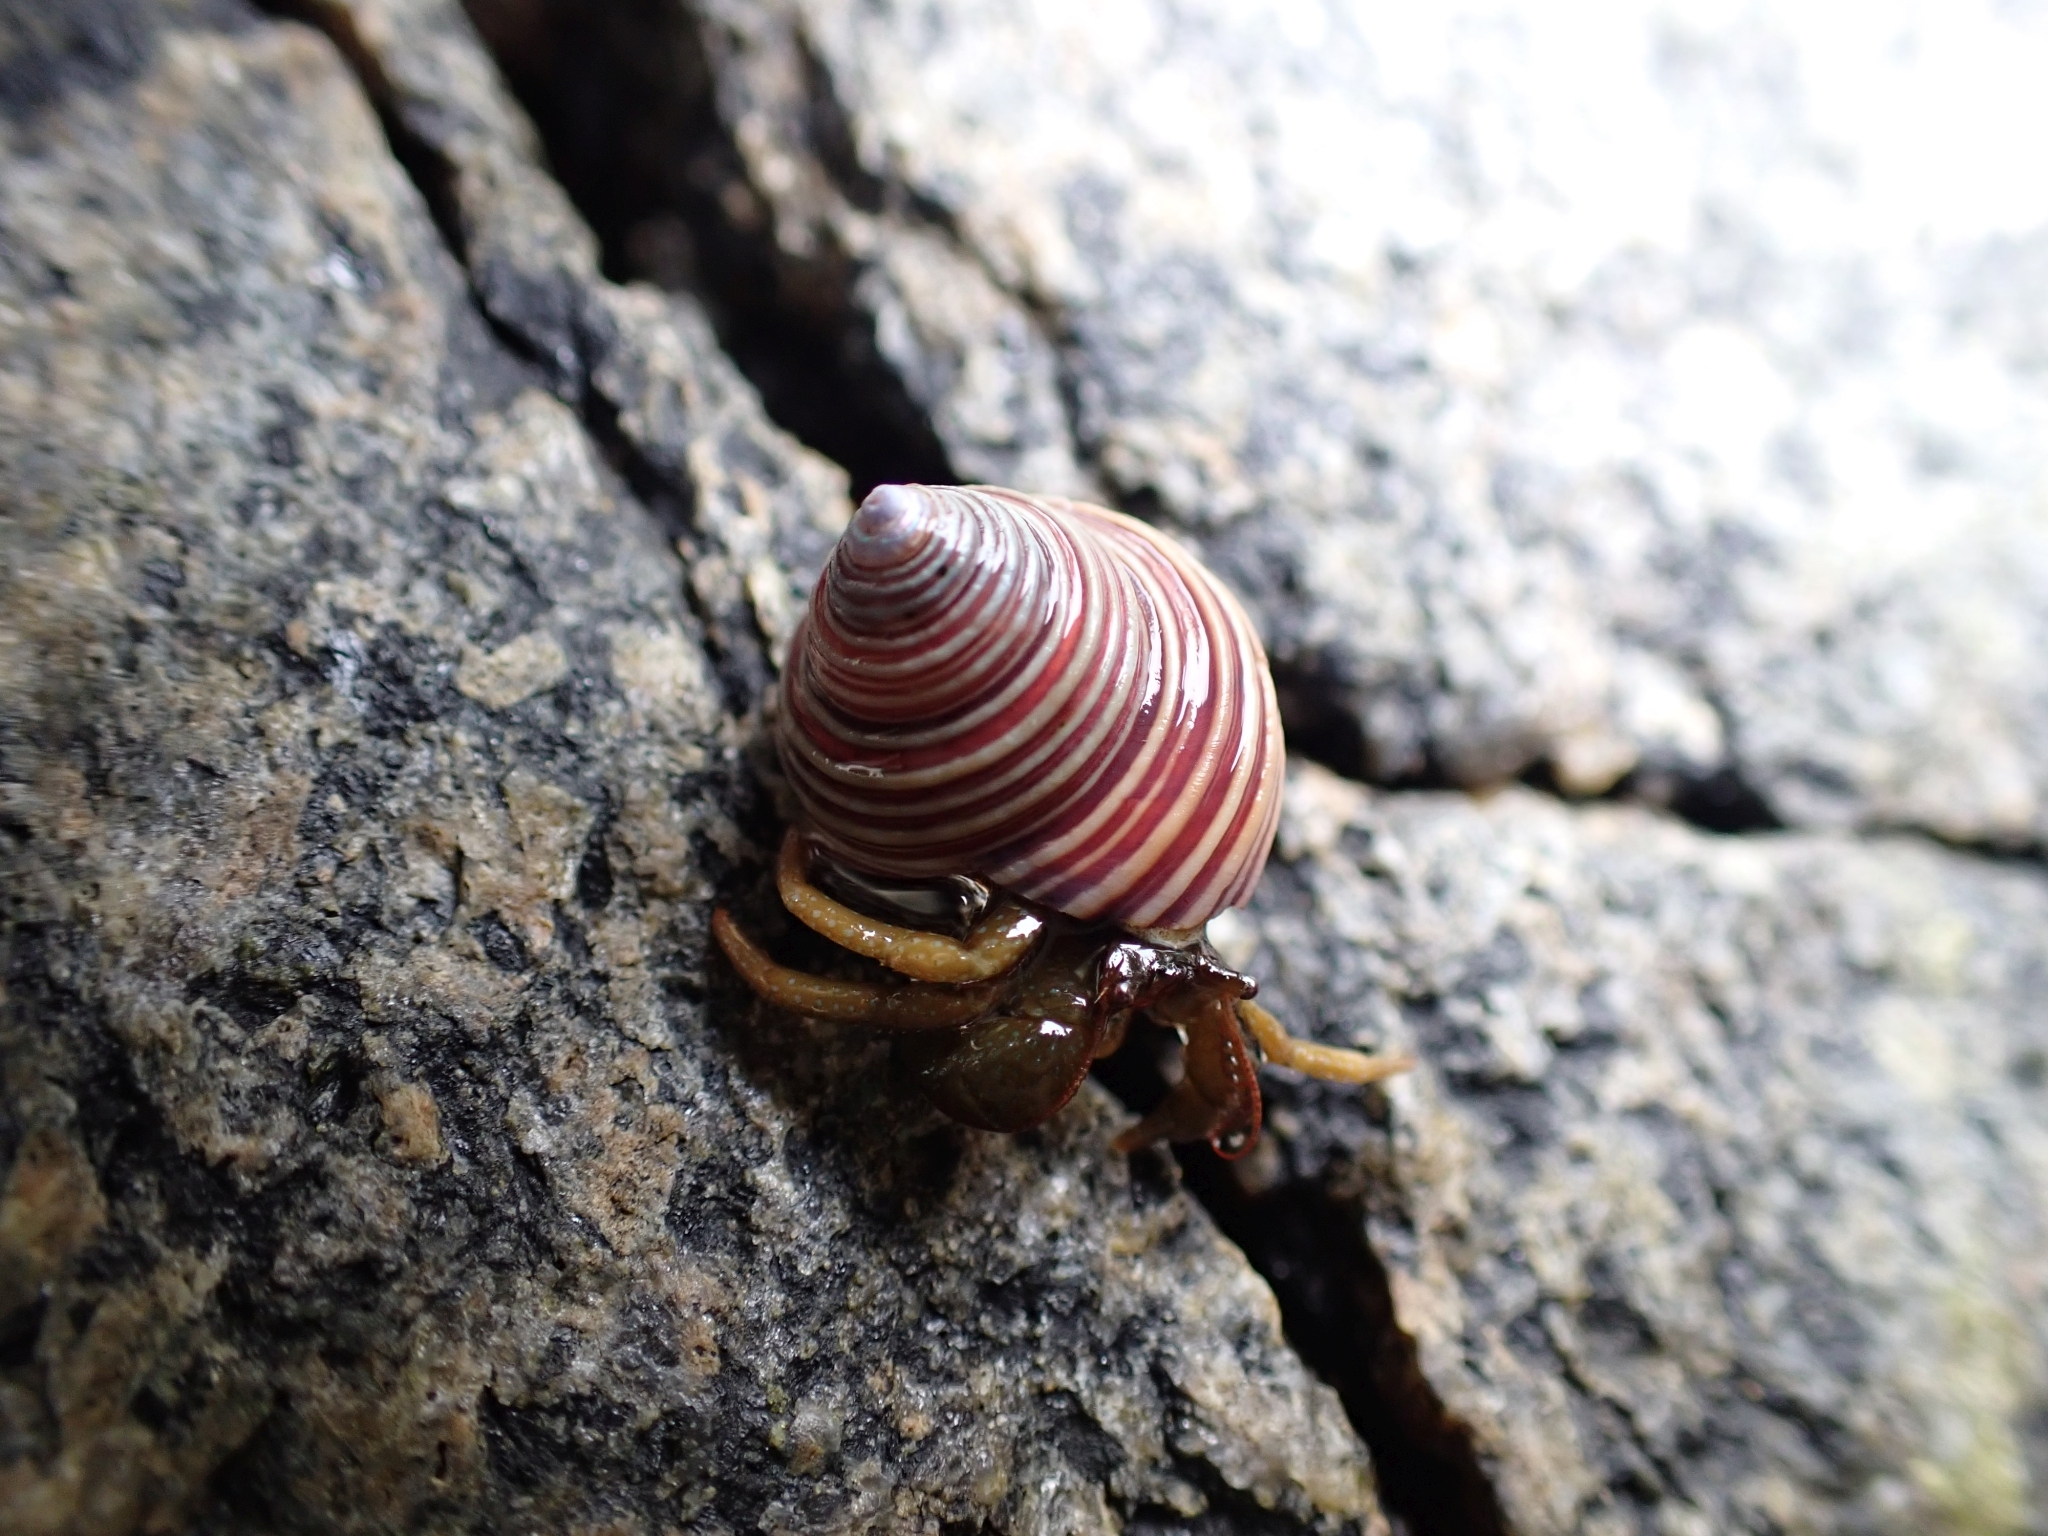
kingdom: Animalia
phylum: Arthropoda
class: Malacostraca
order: Decapoda
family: Paguridae
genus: Pagurus
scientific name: Pagurus granosimanus
